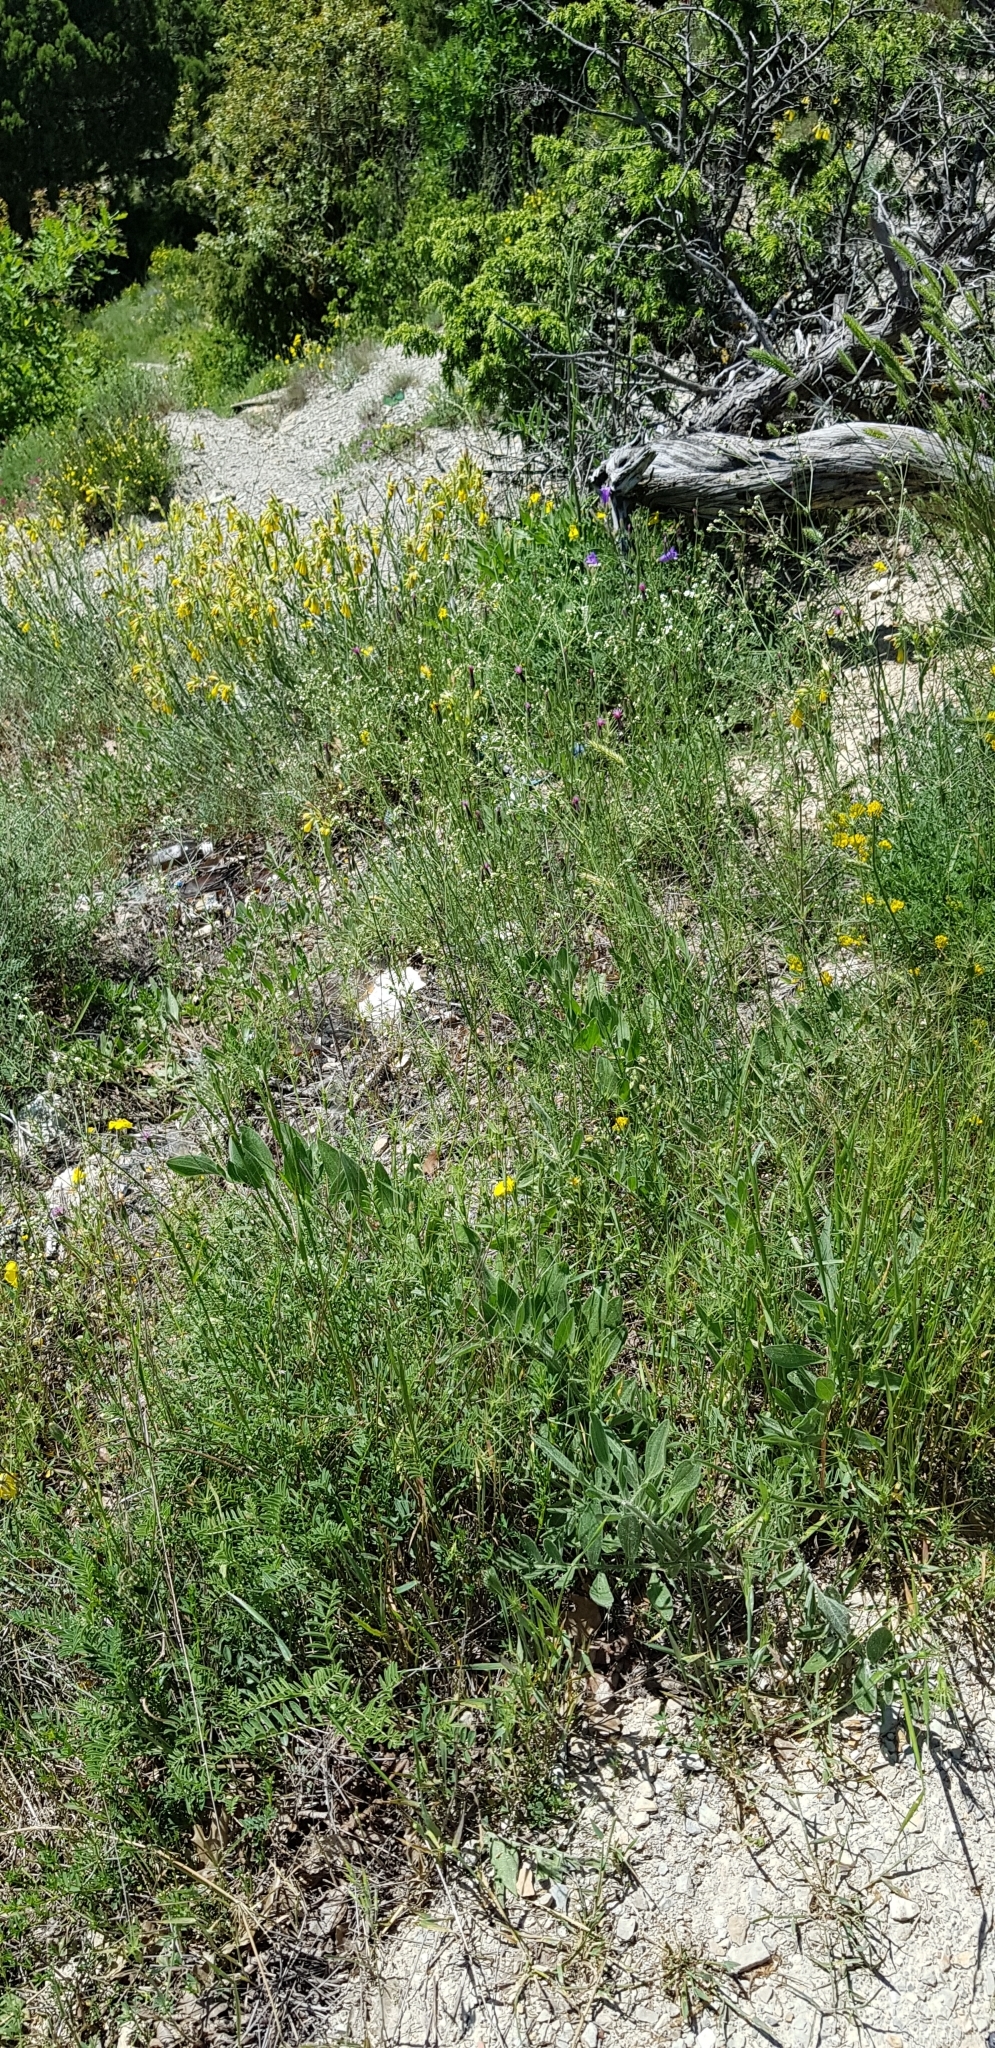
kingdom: Plantae
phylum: Tracheophyta
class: Magnoliopsida
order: Fabales
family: Polygalaceae
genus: Polygala
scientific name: Polygala major
